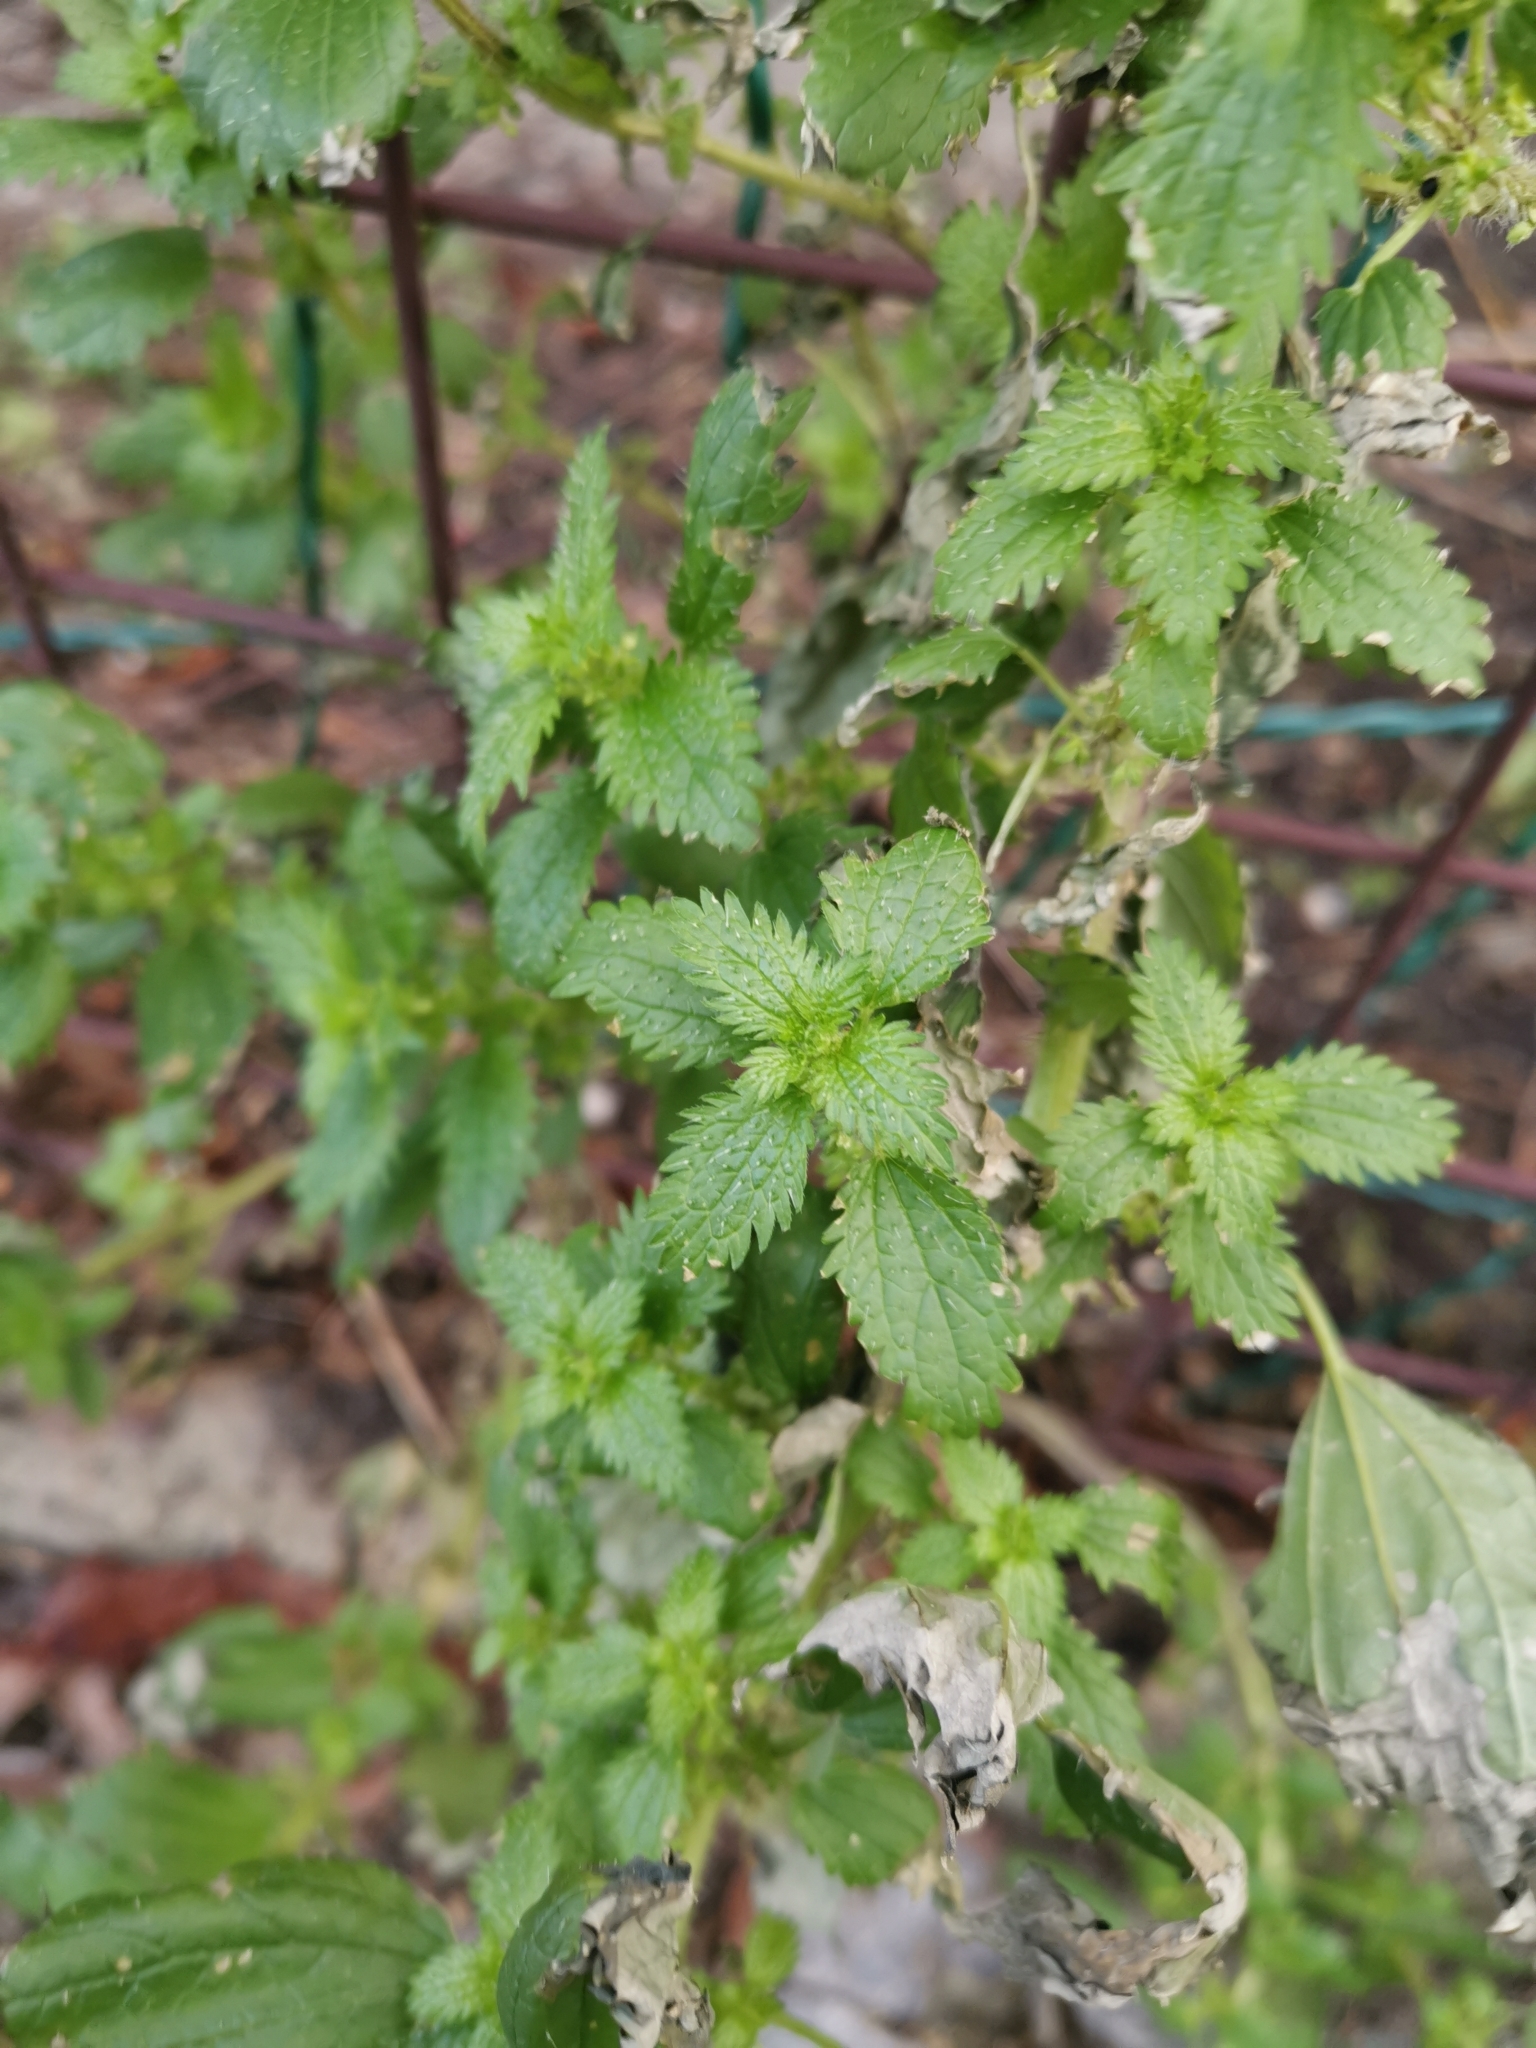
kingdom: Plantae
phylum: Tracheophyta
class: Magnoliopsida
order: Rosales
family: Urticaceae
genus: Urtica
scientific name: Urtica urens
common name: Dwarf nettle
